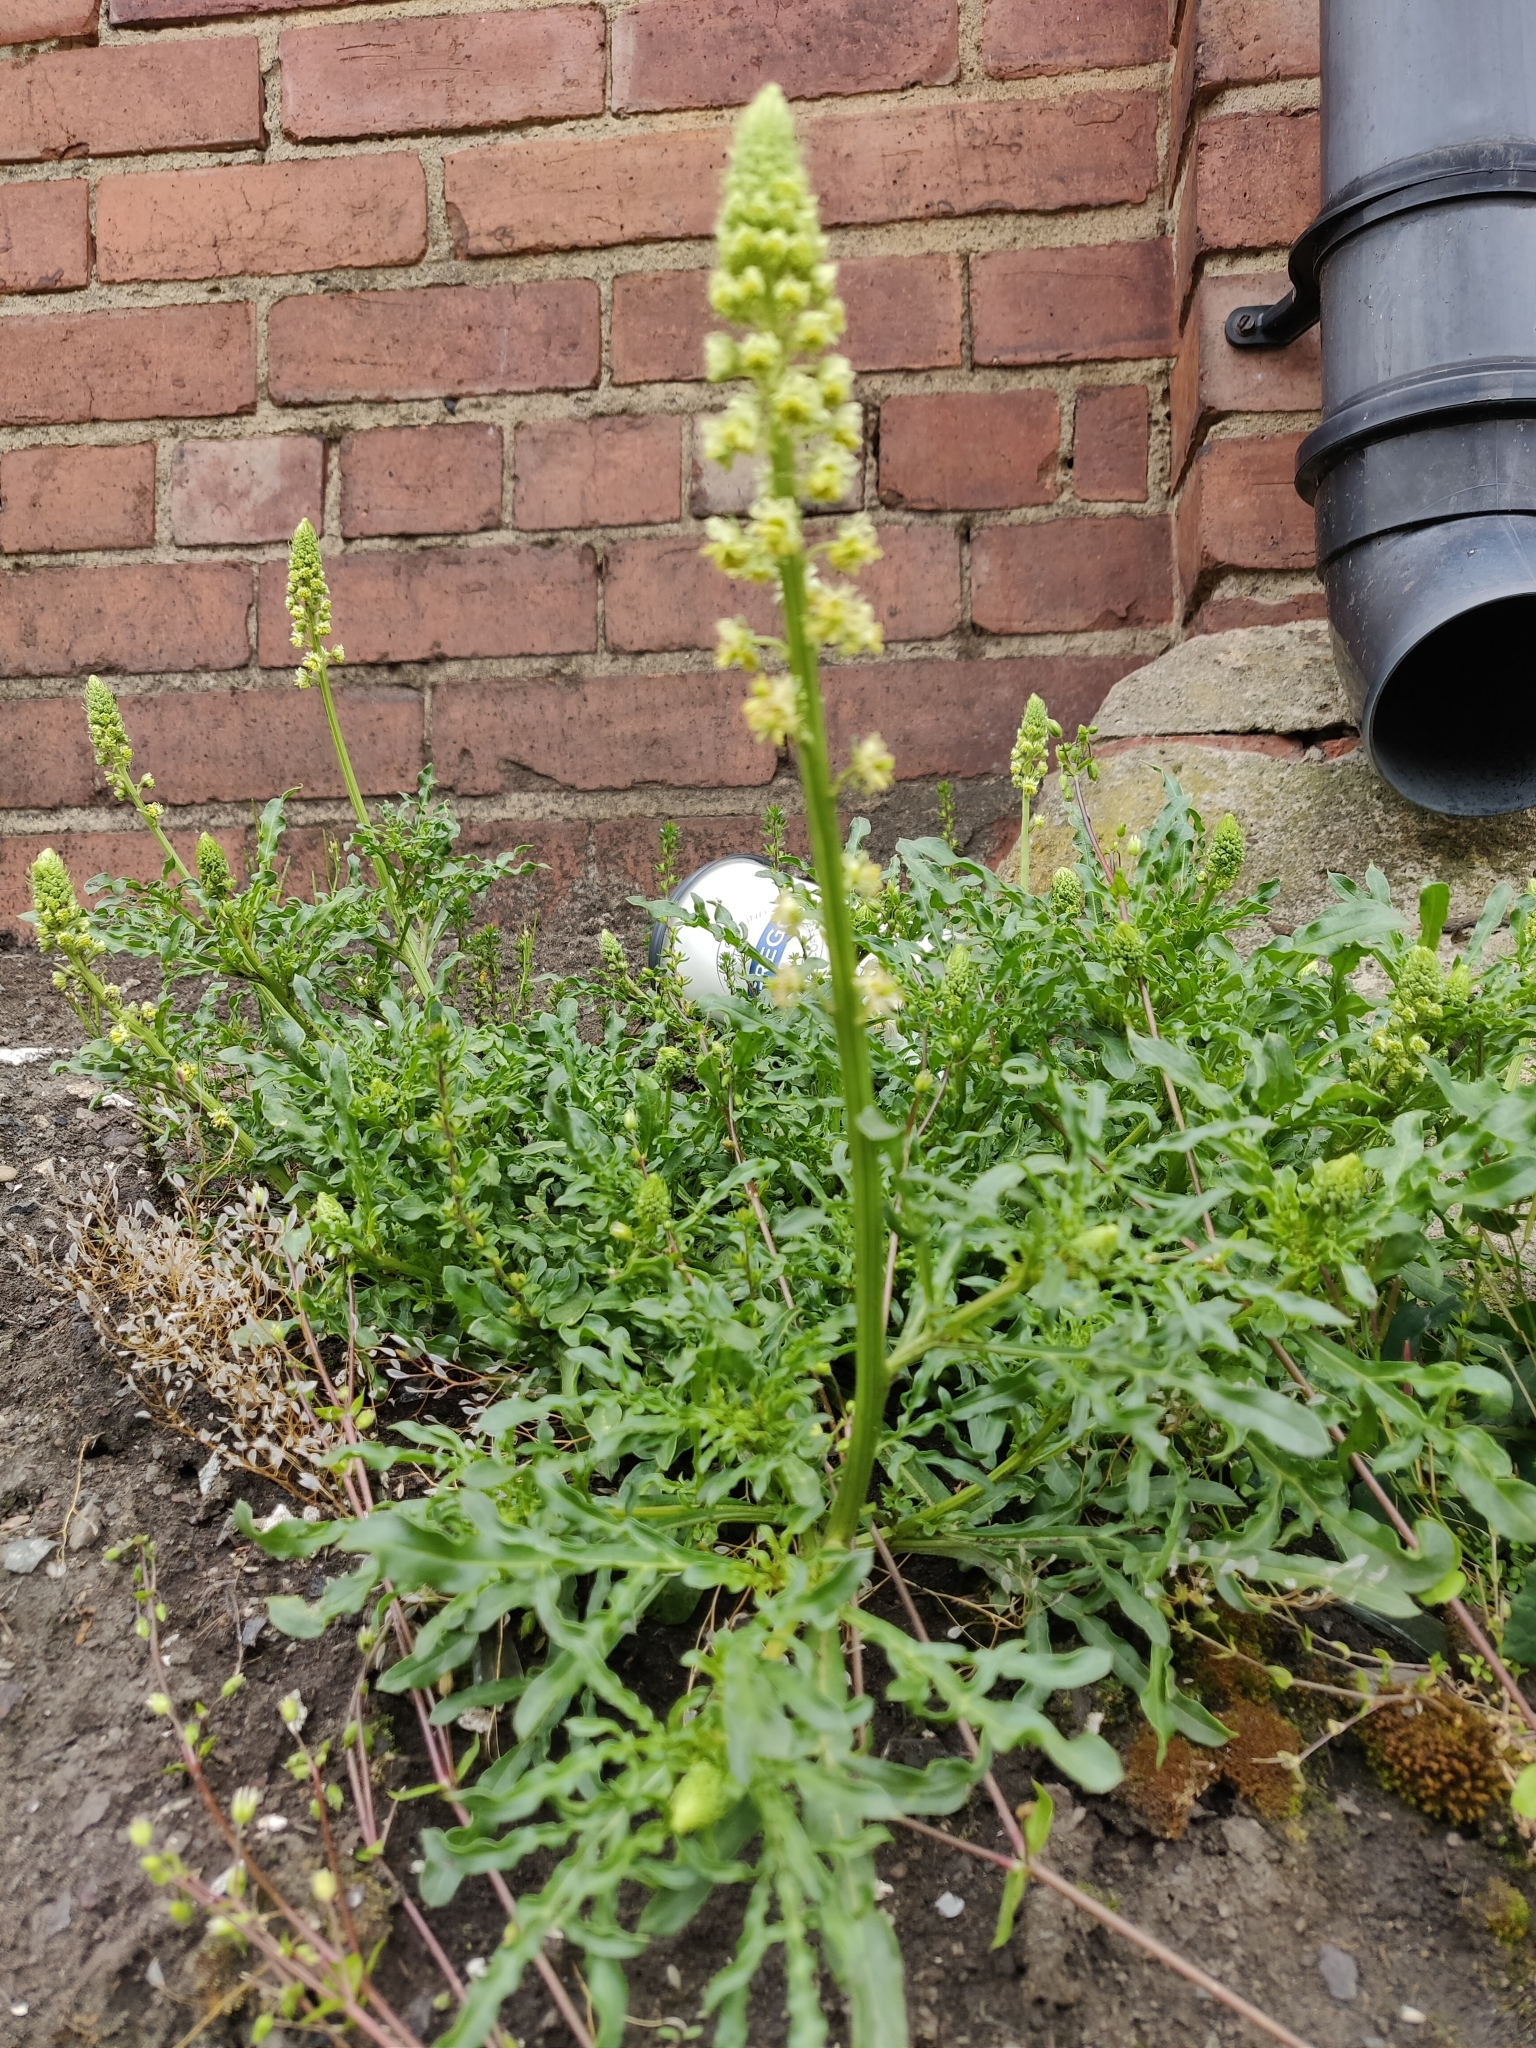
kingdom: Plantae
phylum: Tracheophyta
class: Magnoliopsida
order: Brassicales
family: Resedaceae
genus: Reseda
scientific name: Reseda lutea
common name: Wild mignonette
